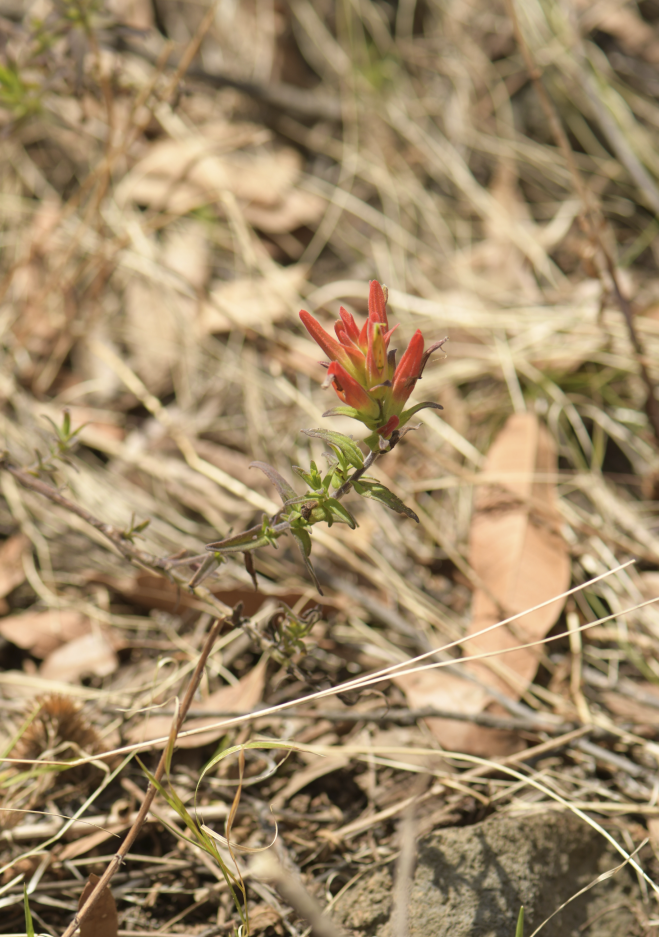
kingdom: Plantae
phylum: Tracheophyta
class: Magnoliopsida
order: Lamiales
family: Orobanchaceae
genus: Castilleja
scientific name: Castilleja auriculata
